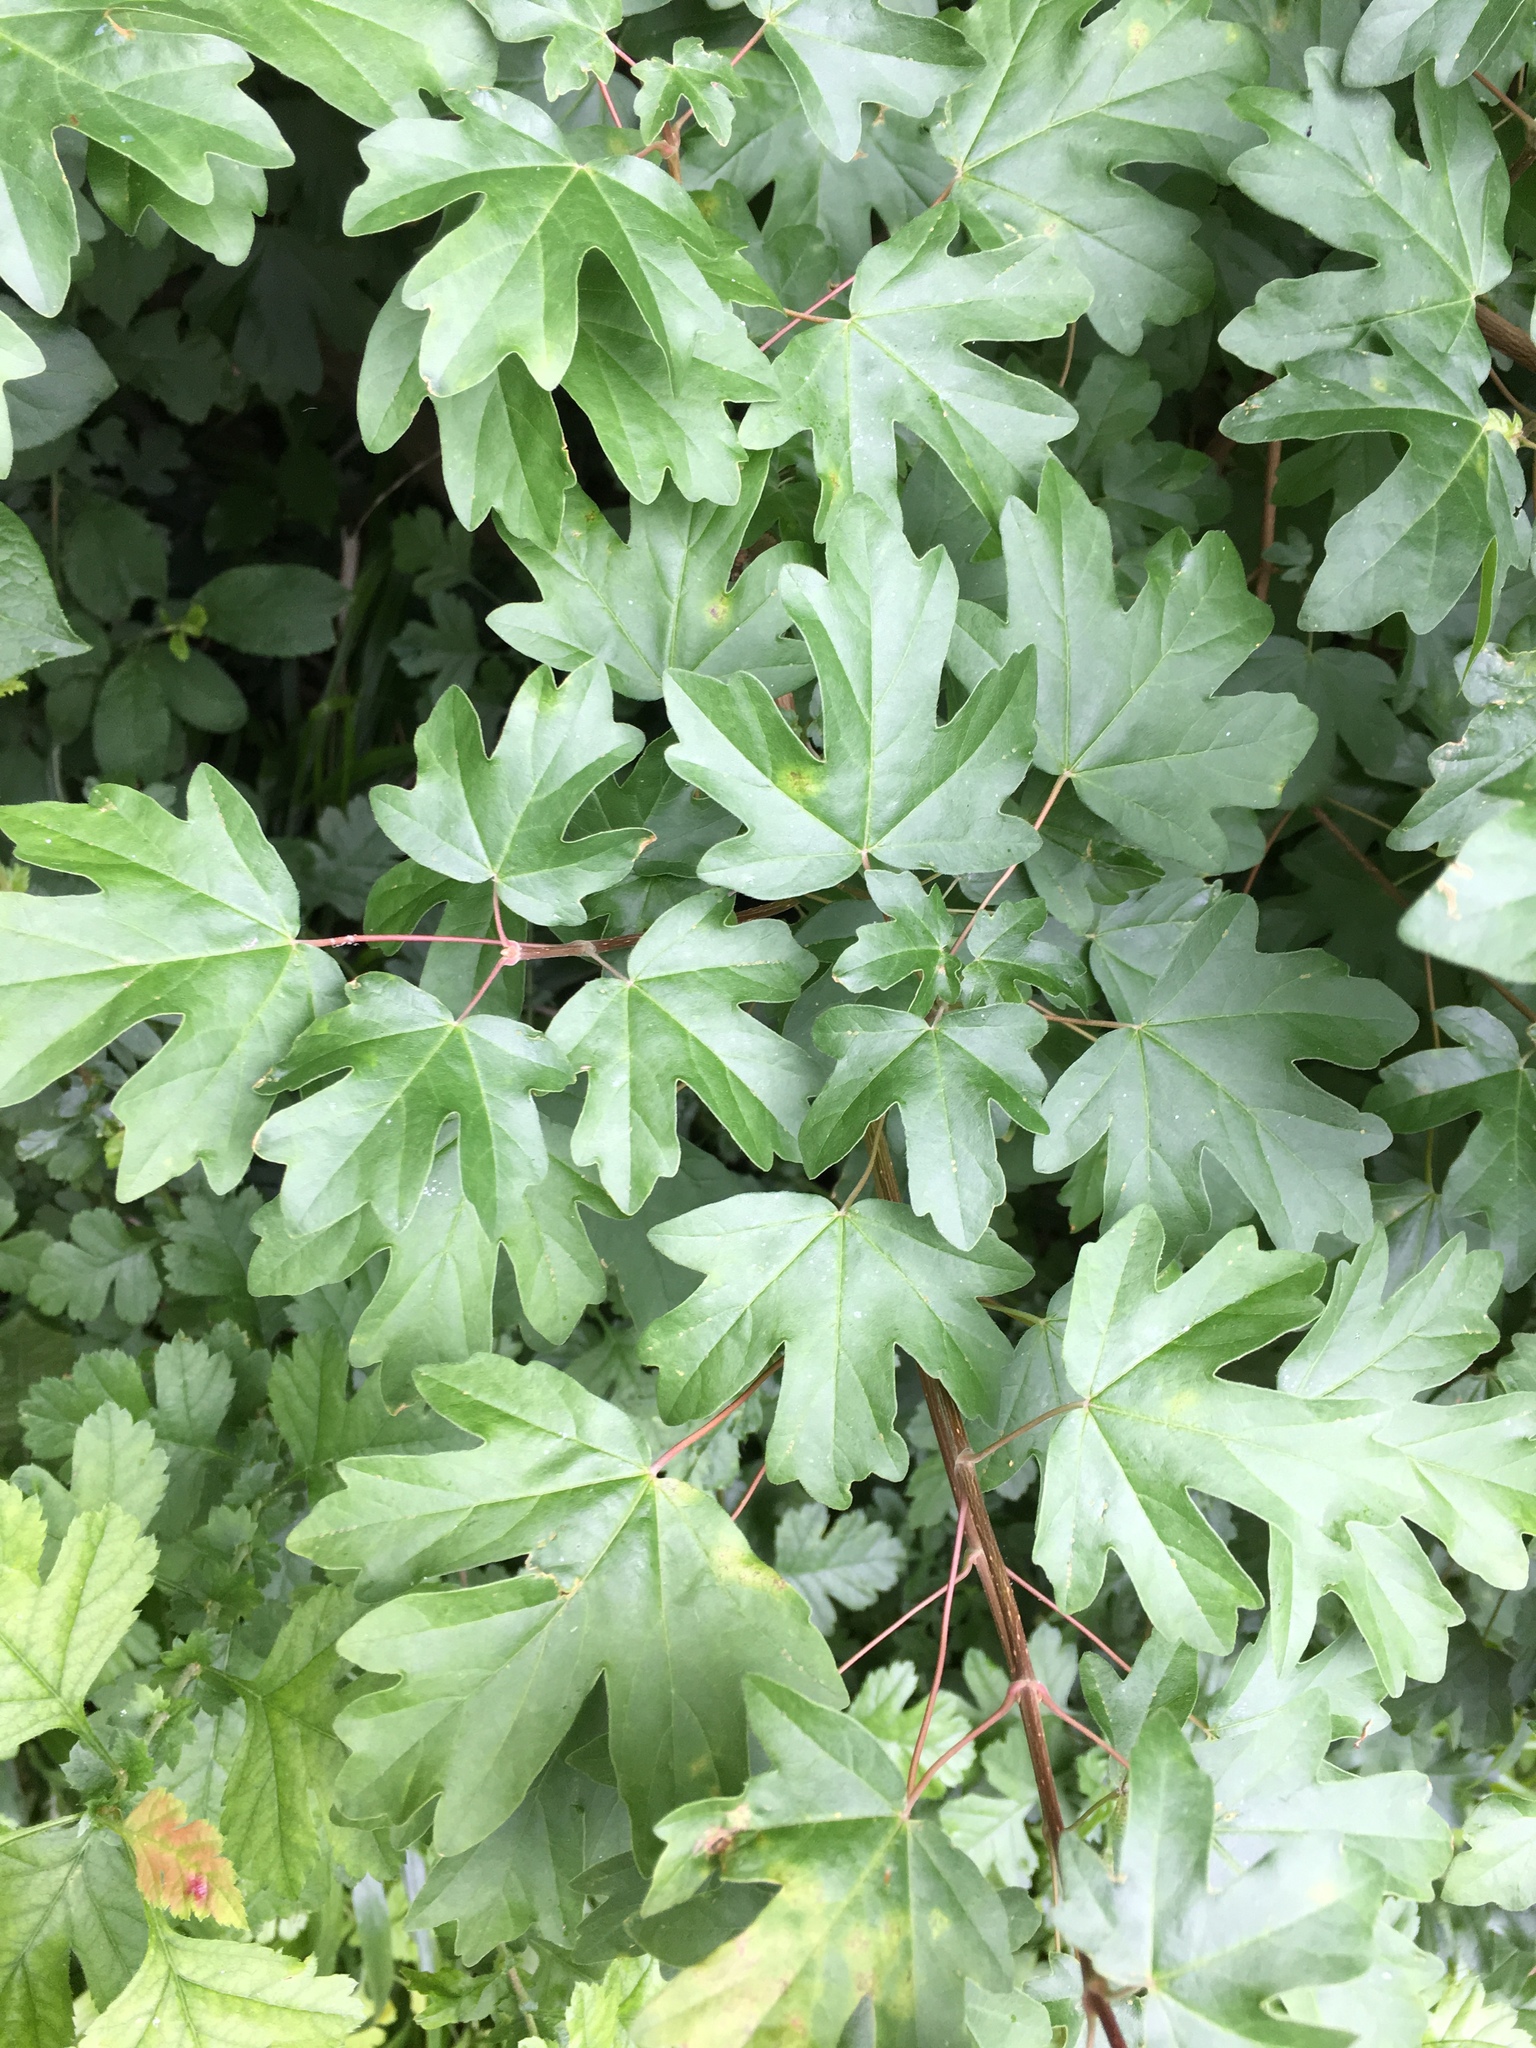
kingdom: Plantae
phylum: Tracheophyta
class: Magnoliopsida
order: Sapindales
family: Sapindaceae
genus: Acer
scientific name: Acer campestre
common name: Field maple
